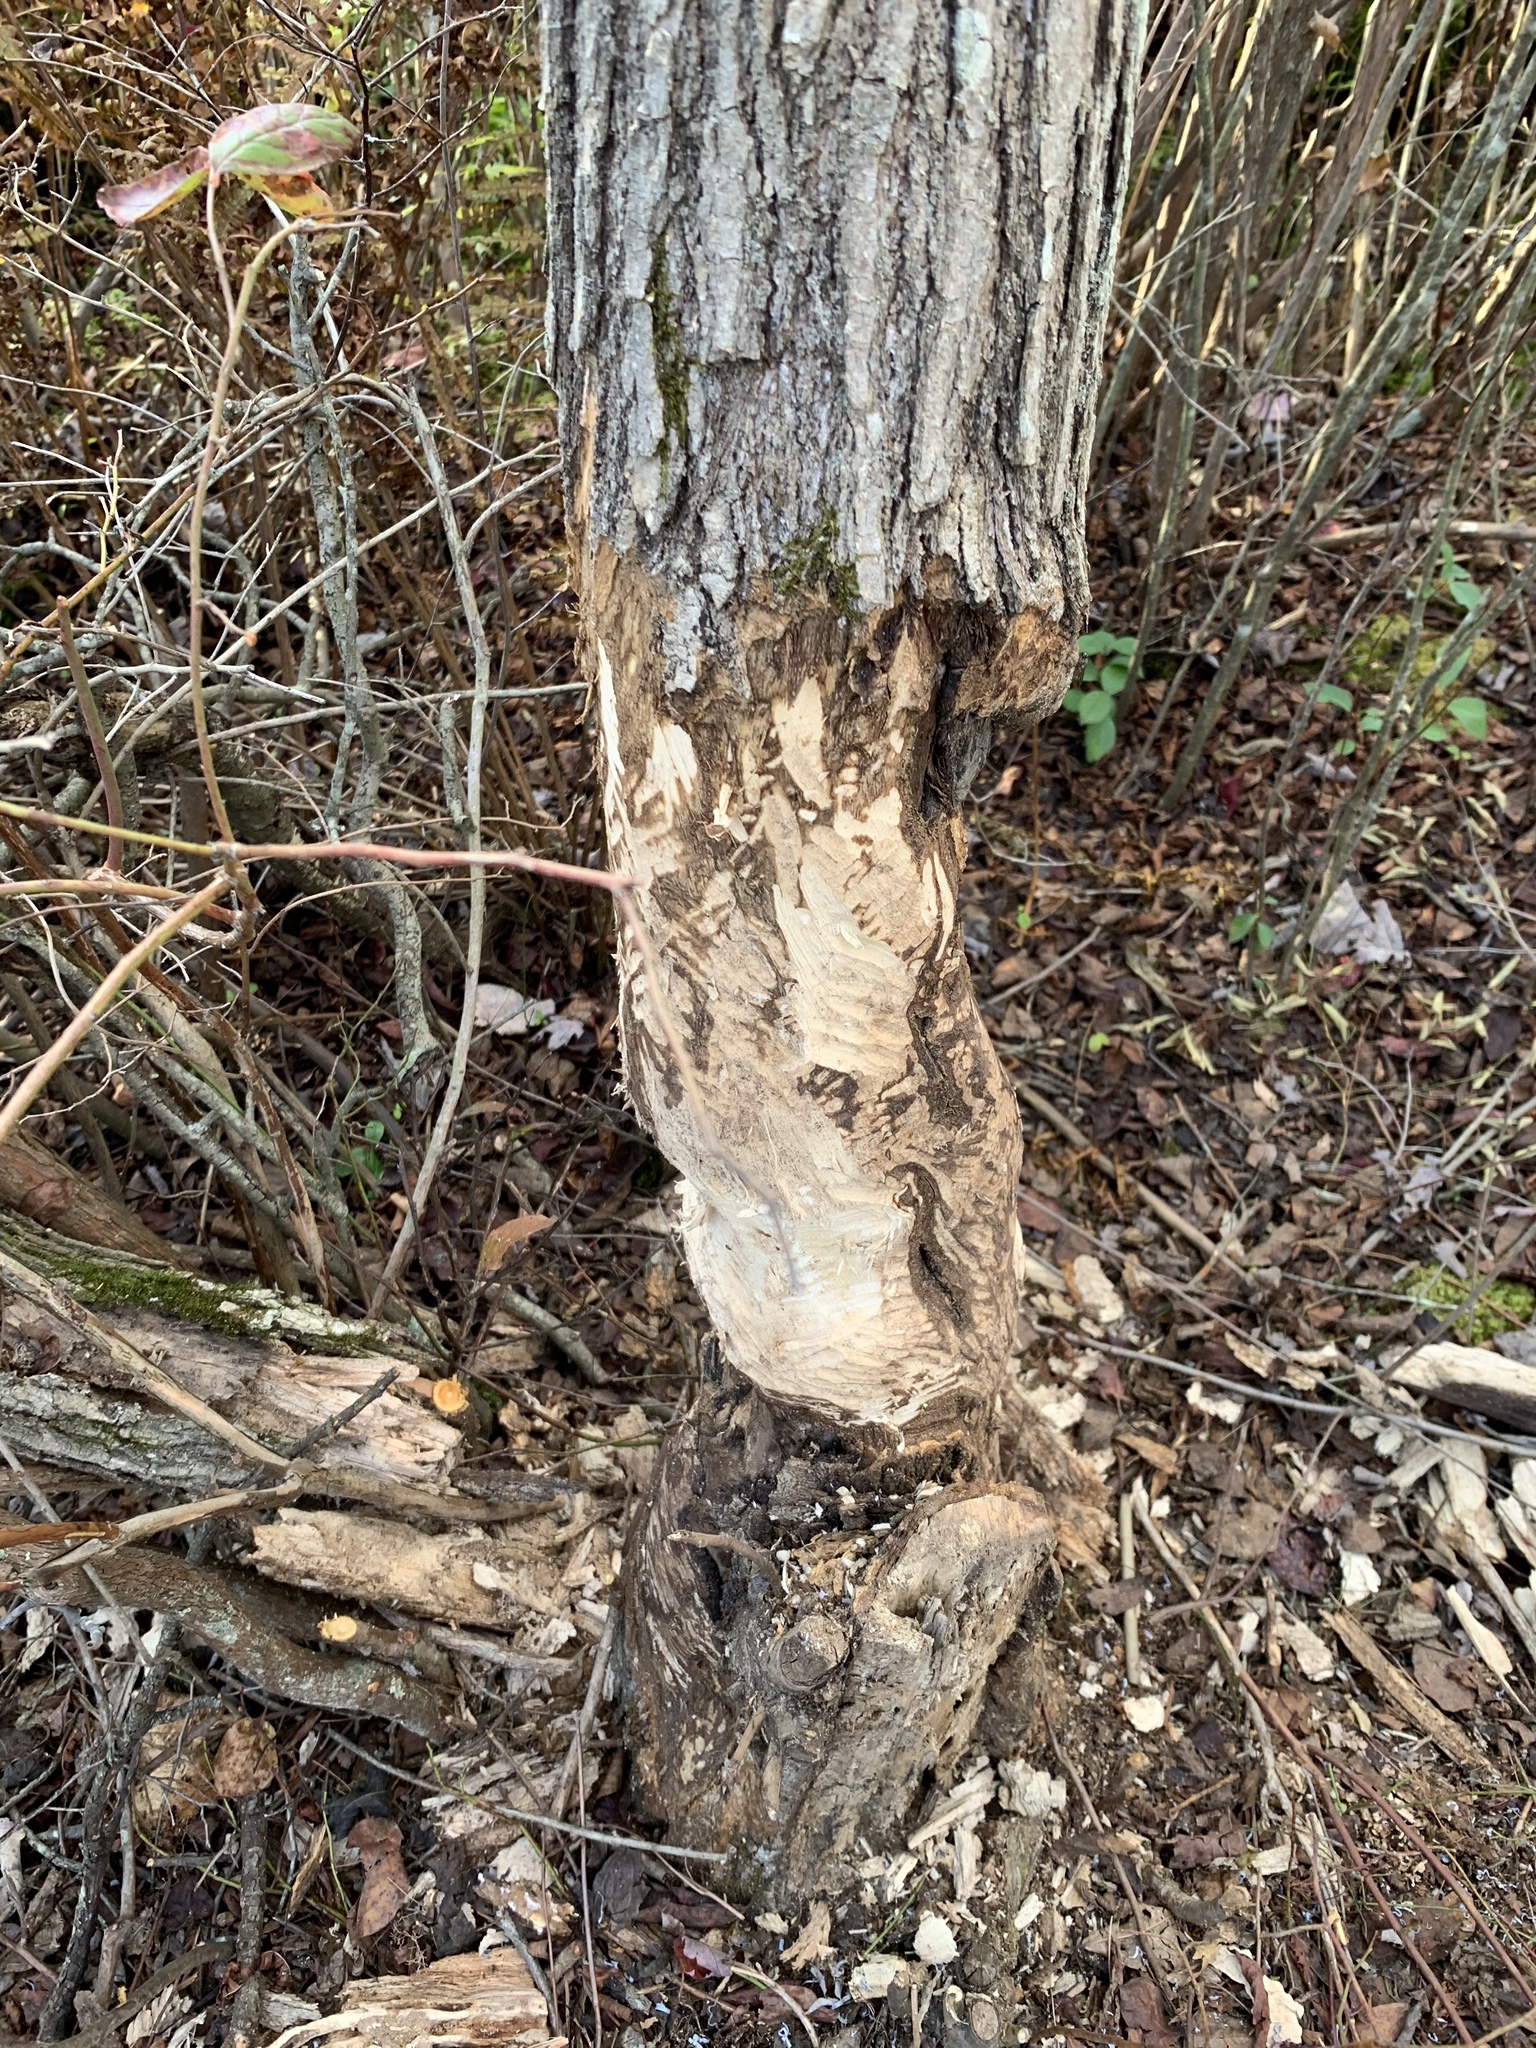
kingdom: Animalia
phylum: Chordata
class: Mammalia
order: Rodentia
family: Castoridae
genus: Castor
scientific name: Castor canadensis
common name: American beaver
